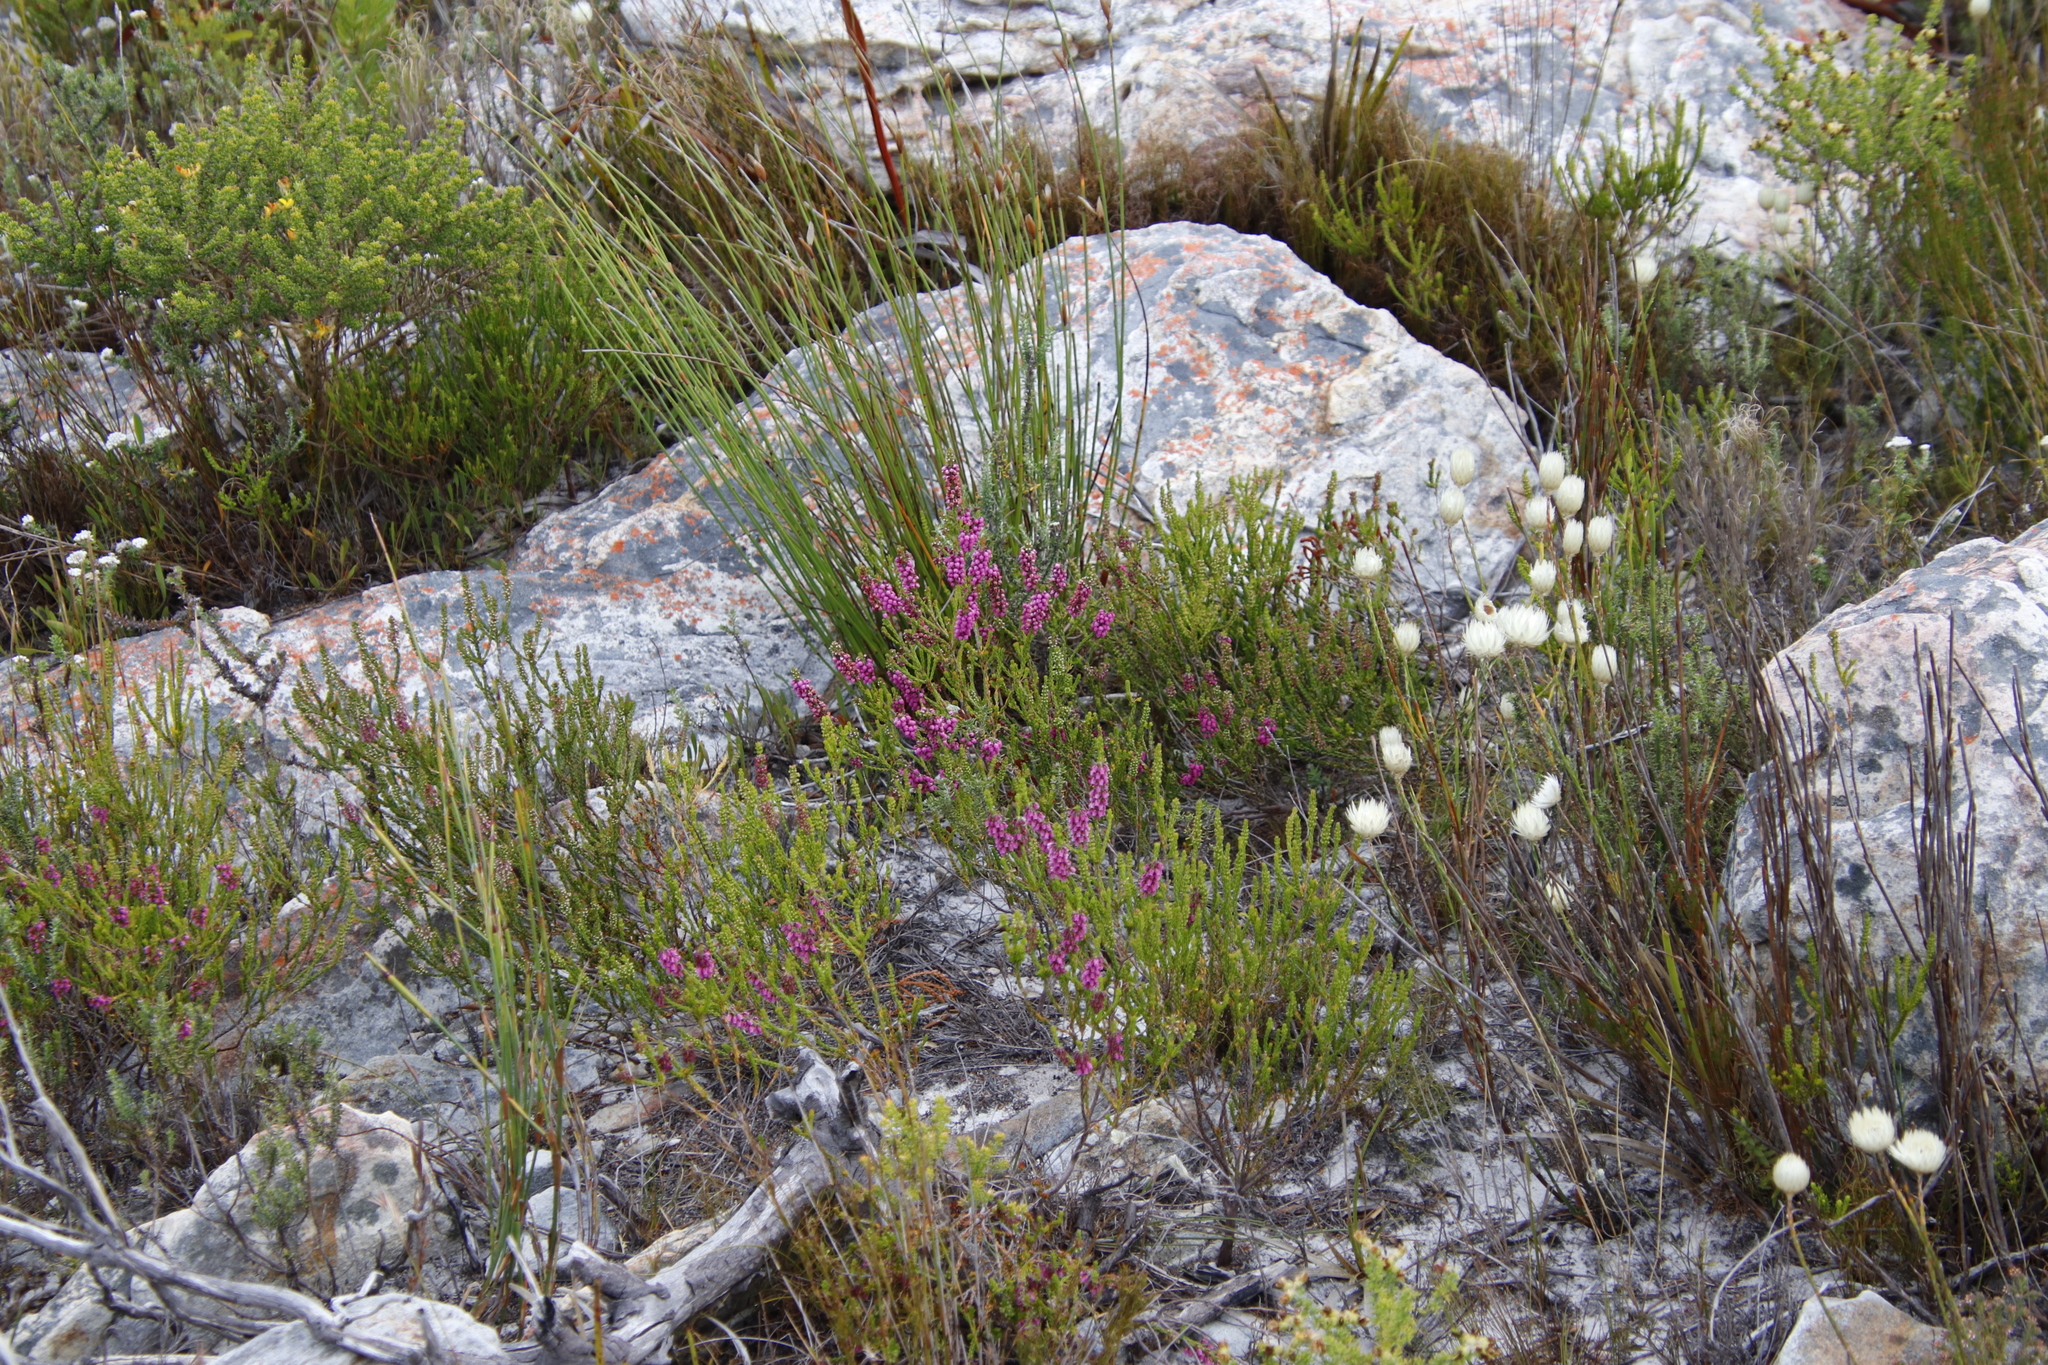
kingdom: Plantae
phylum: Tracheophyta
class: Magnoliopsida
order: Ericales
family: Ericaceae
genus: Erica
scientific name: Erica pulchella
